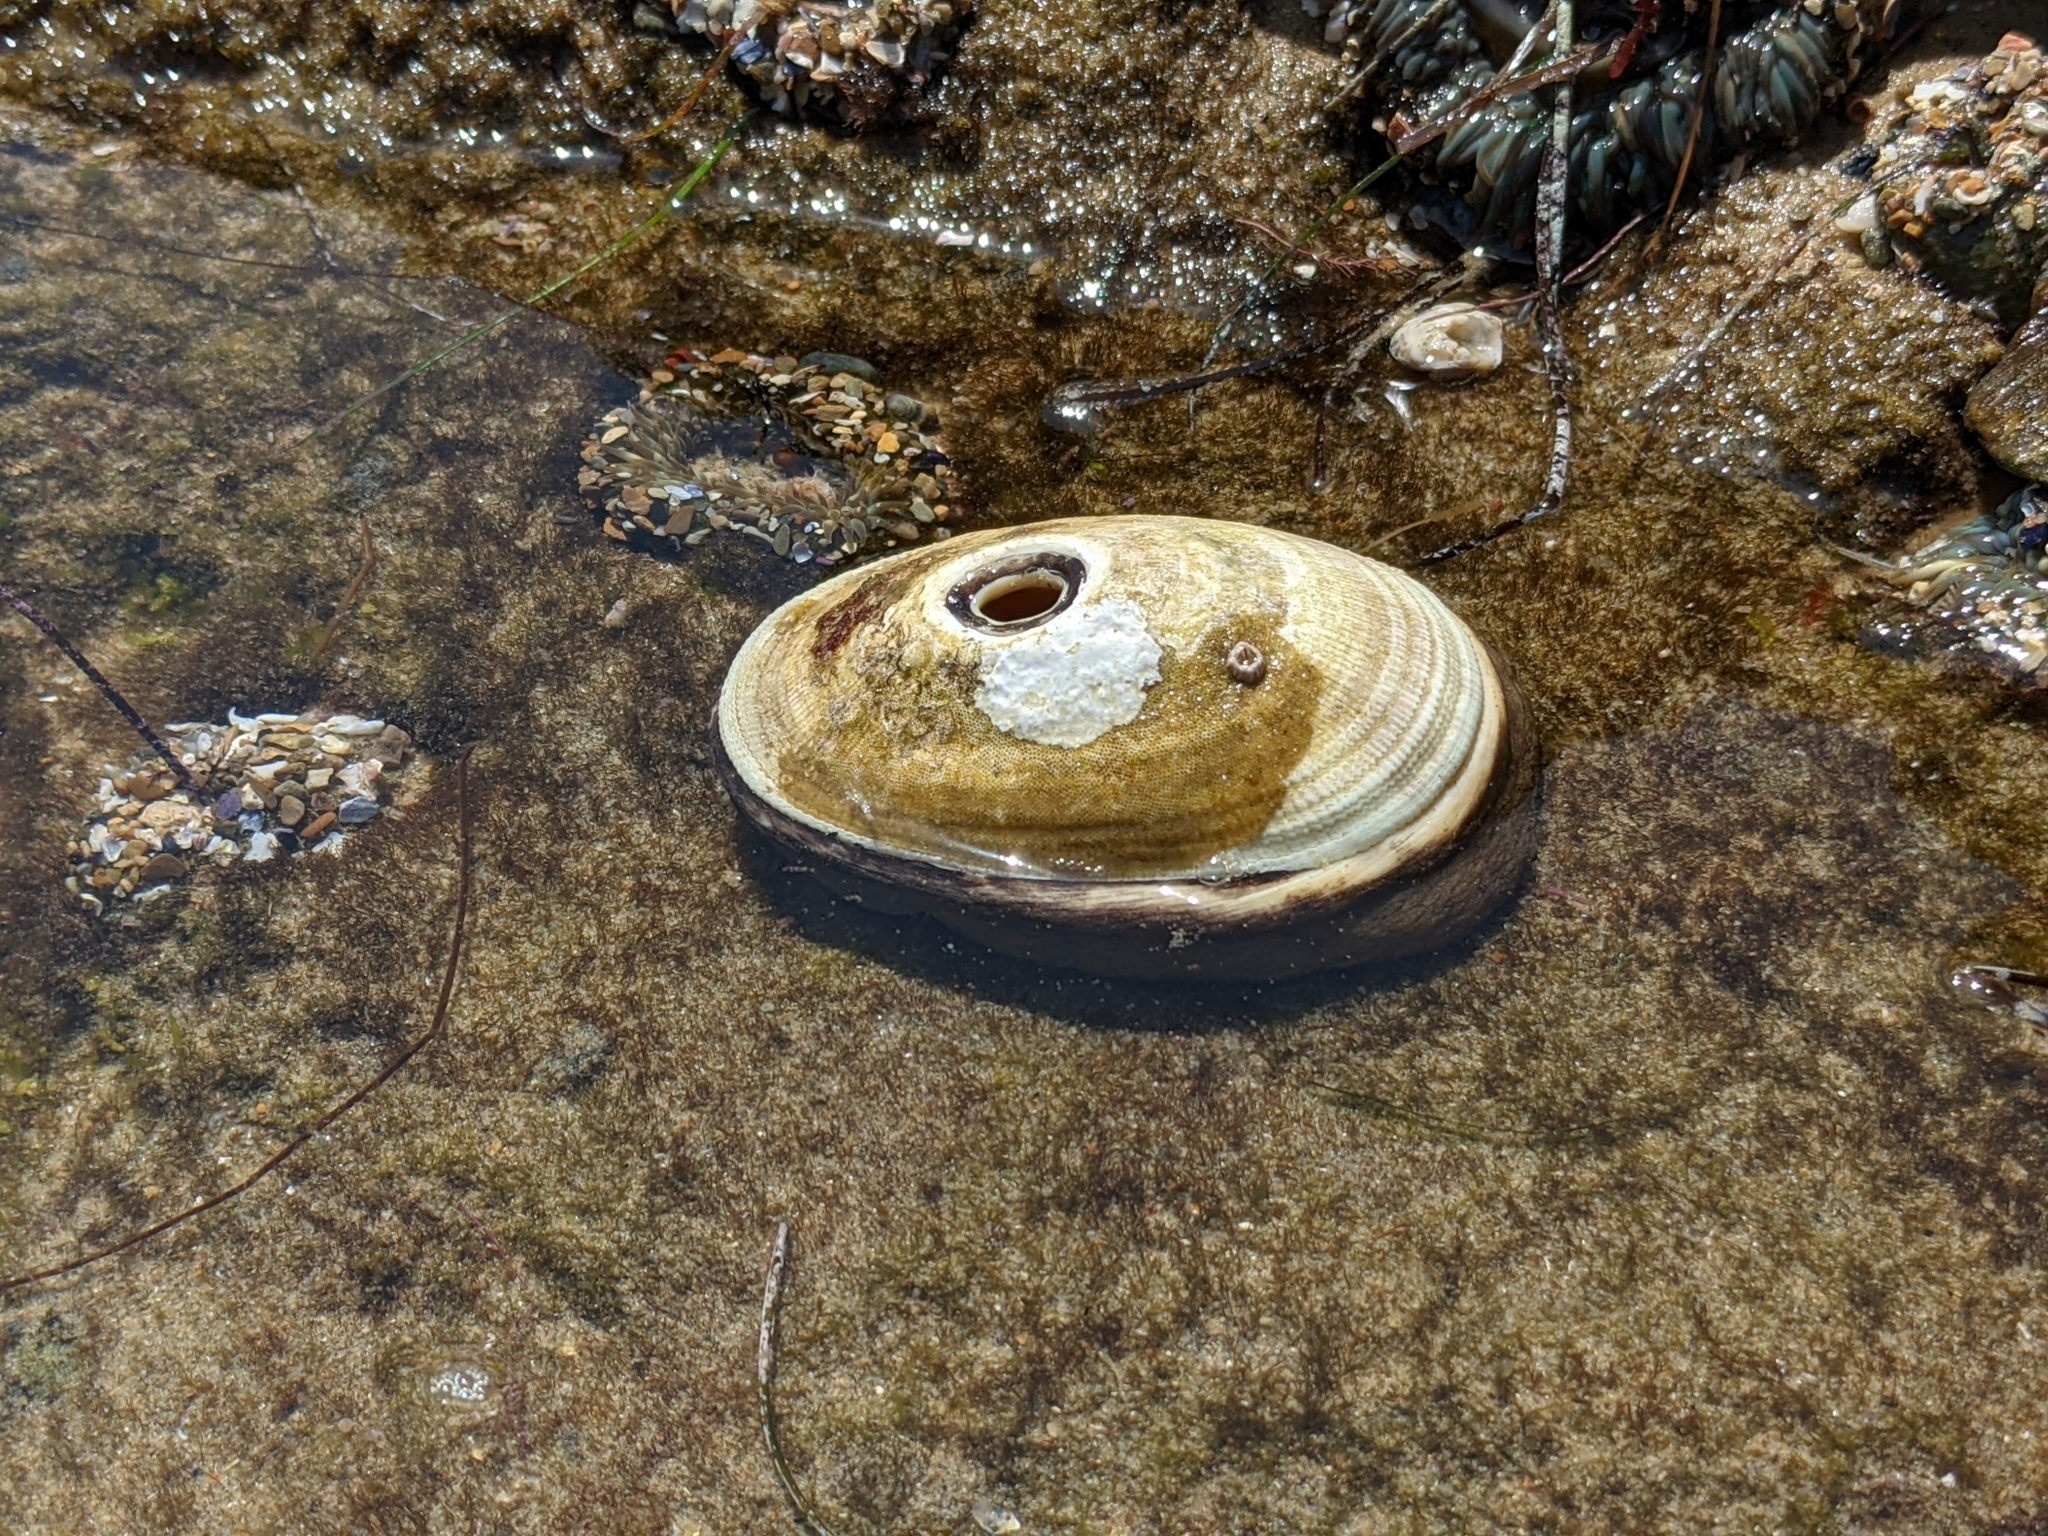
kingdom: Animalia
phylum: Mollusca
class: Gastropoda
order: Lepetellida
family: Fissurellidae
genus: Megathura
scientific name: Megathura crenulata
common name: Giant keyhole limpet
